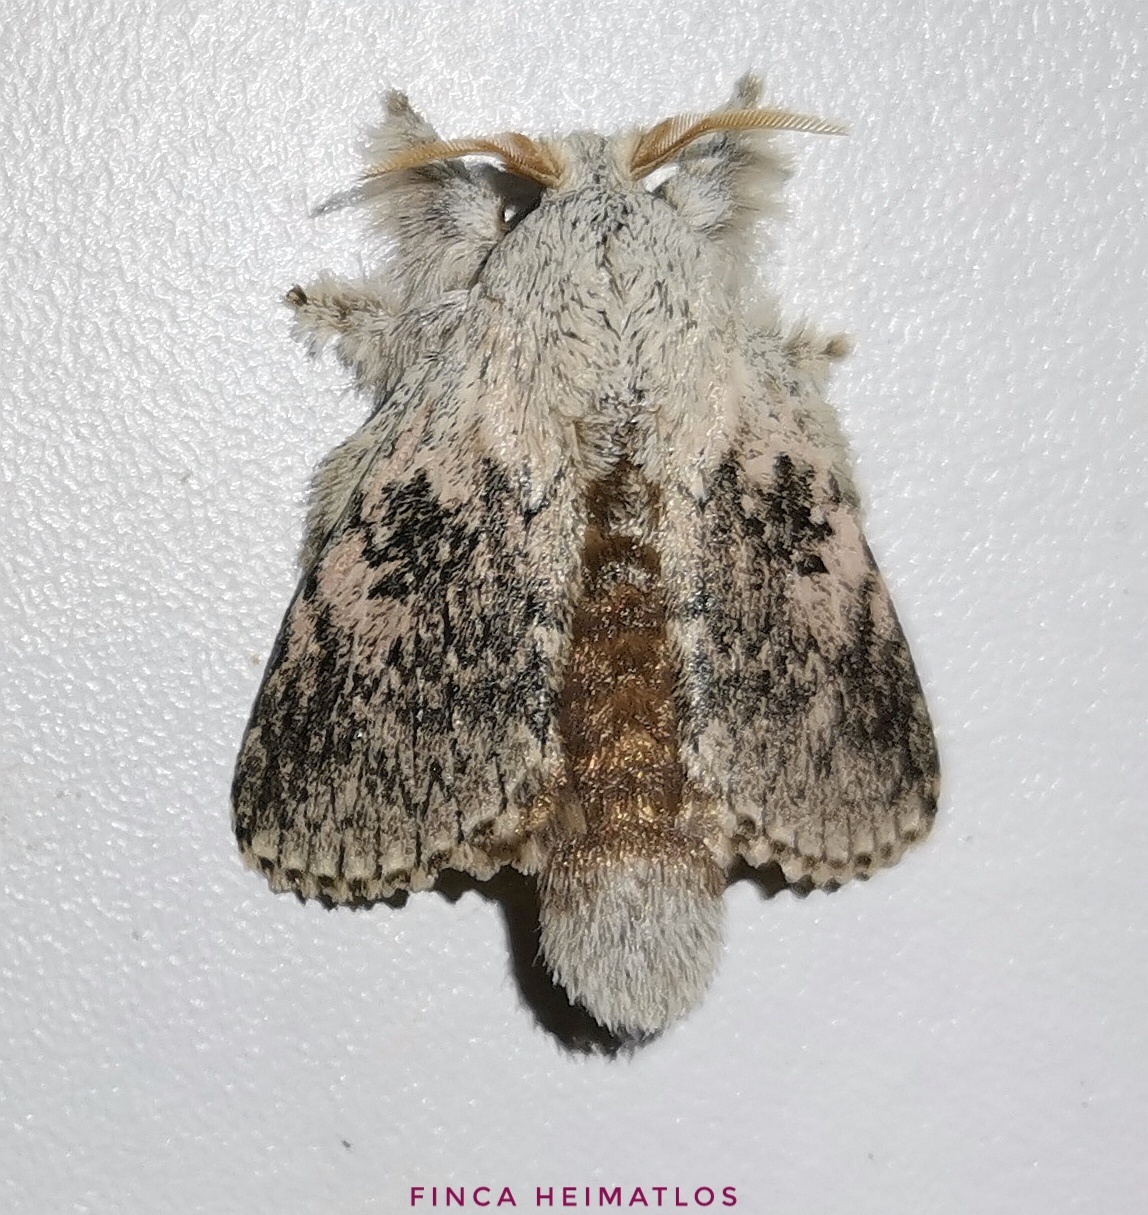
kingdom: Animalia
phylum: Arthropoda
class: Insecta
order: Lepidoptera
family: Lasiocampidae
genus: Euglyphis
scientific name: Euglyphis revincta
